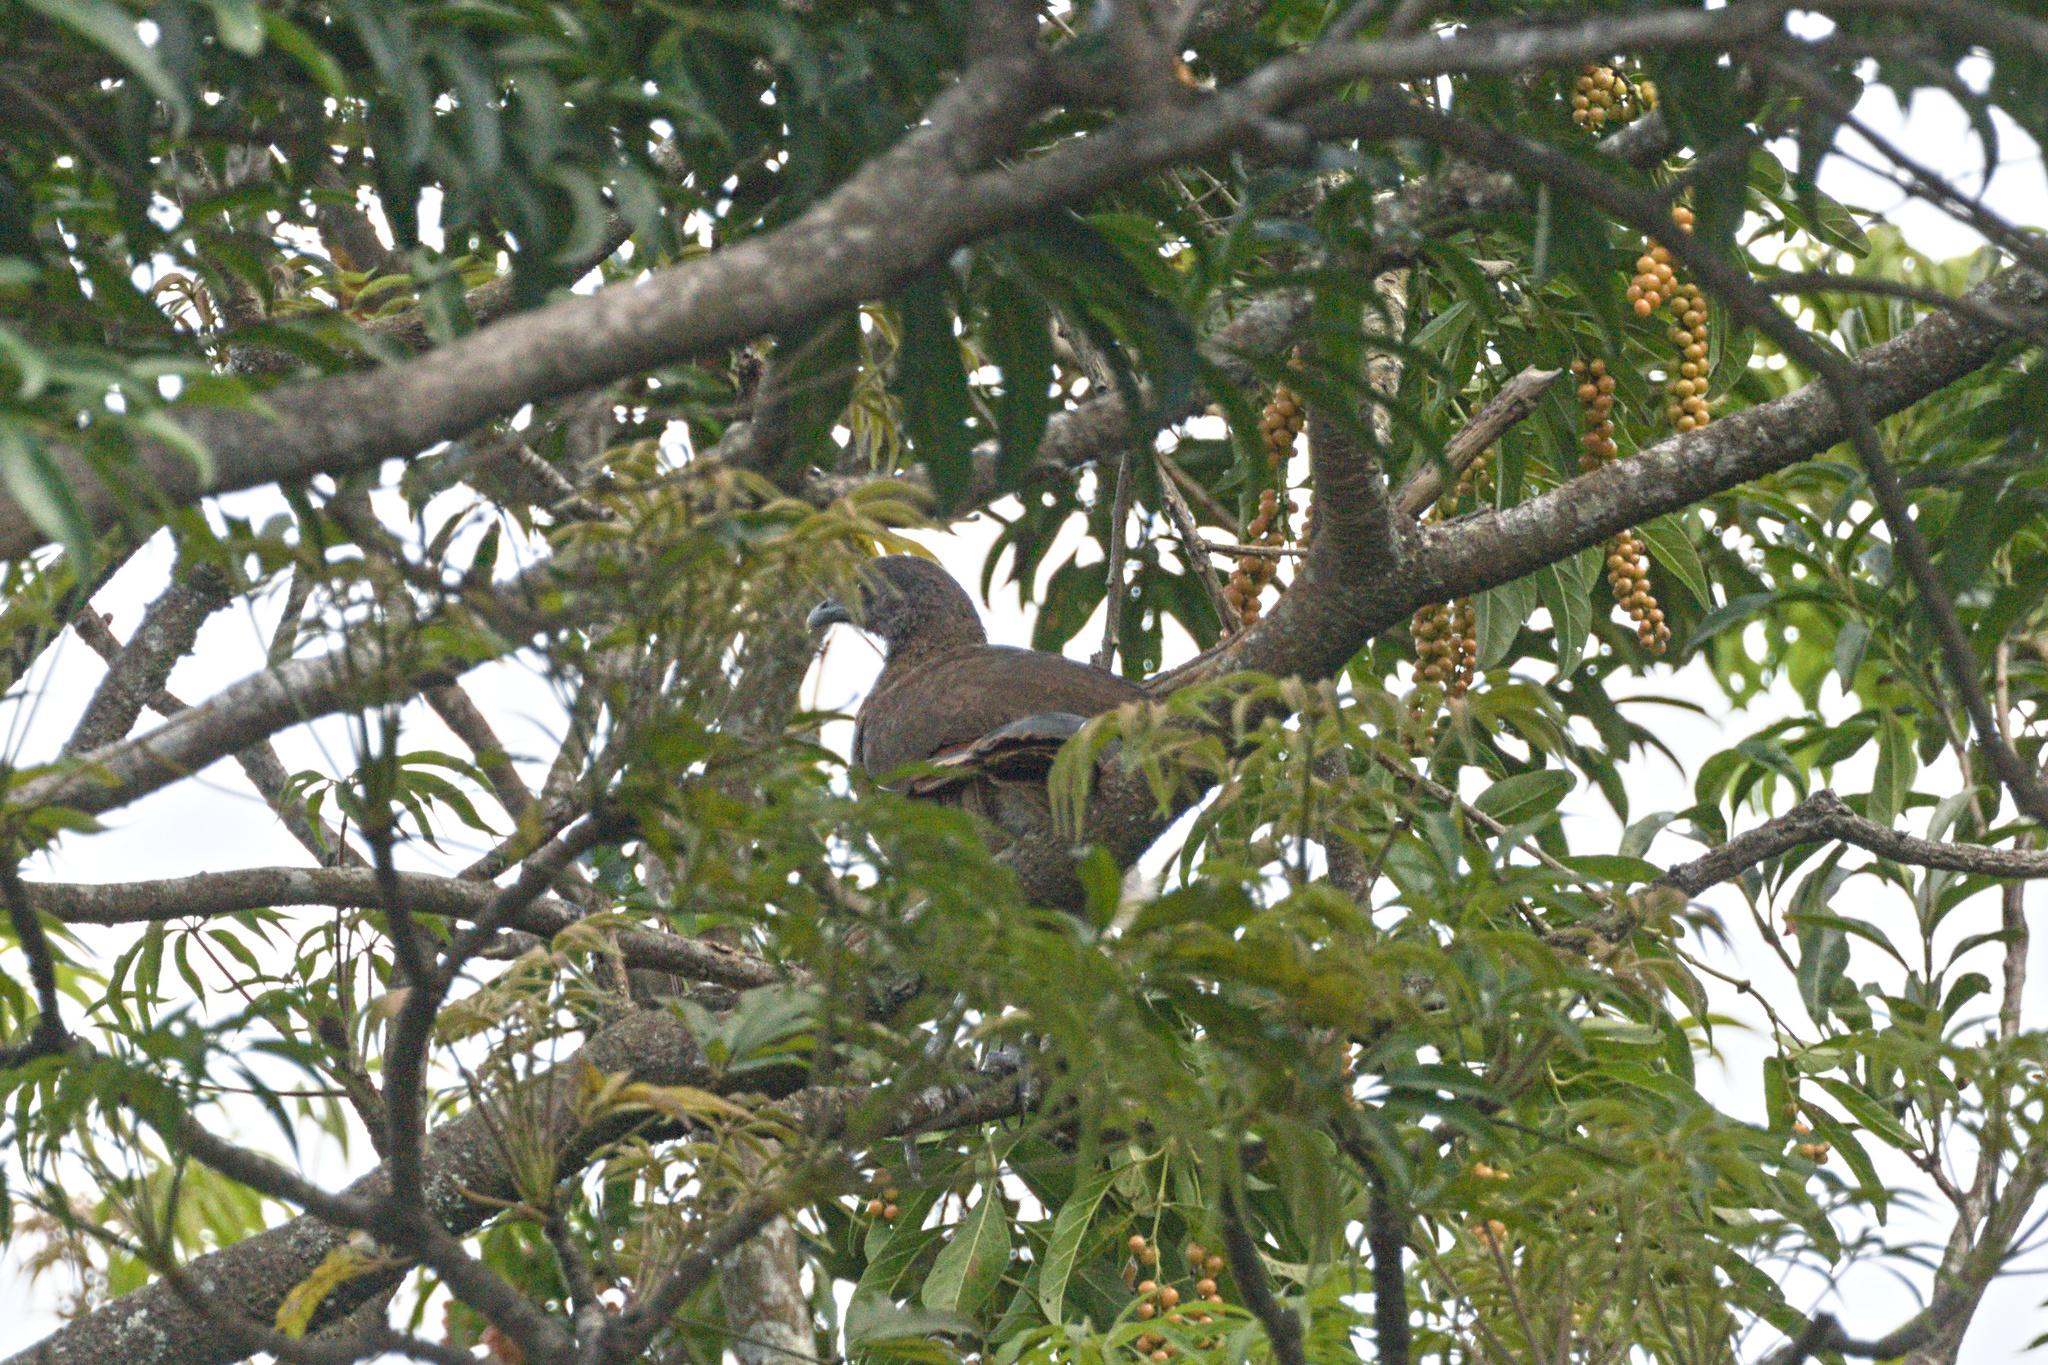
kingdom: Animalia
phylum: Chordata
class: Aves
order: Galliformes
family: Cracidae
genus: Ortalis
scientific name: Ortalis cinereiceps
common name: Grey-headed chachalaca
